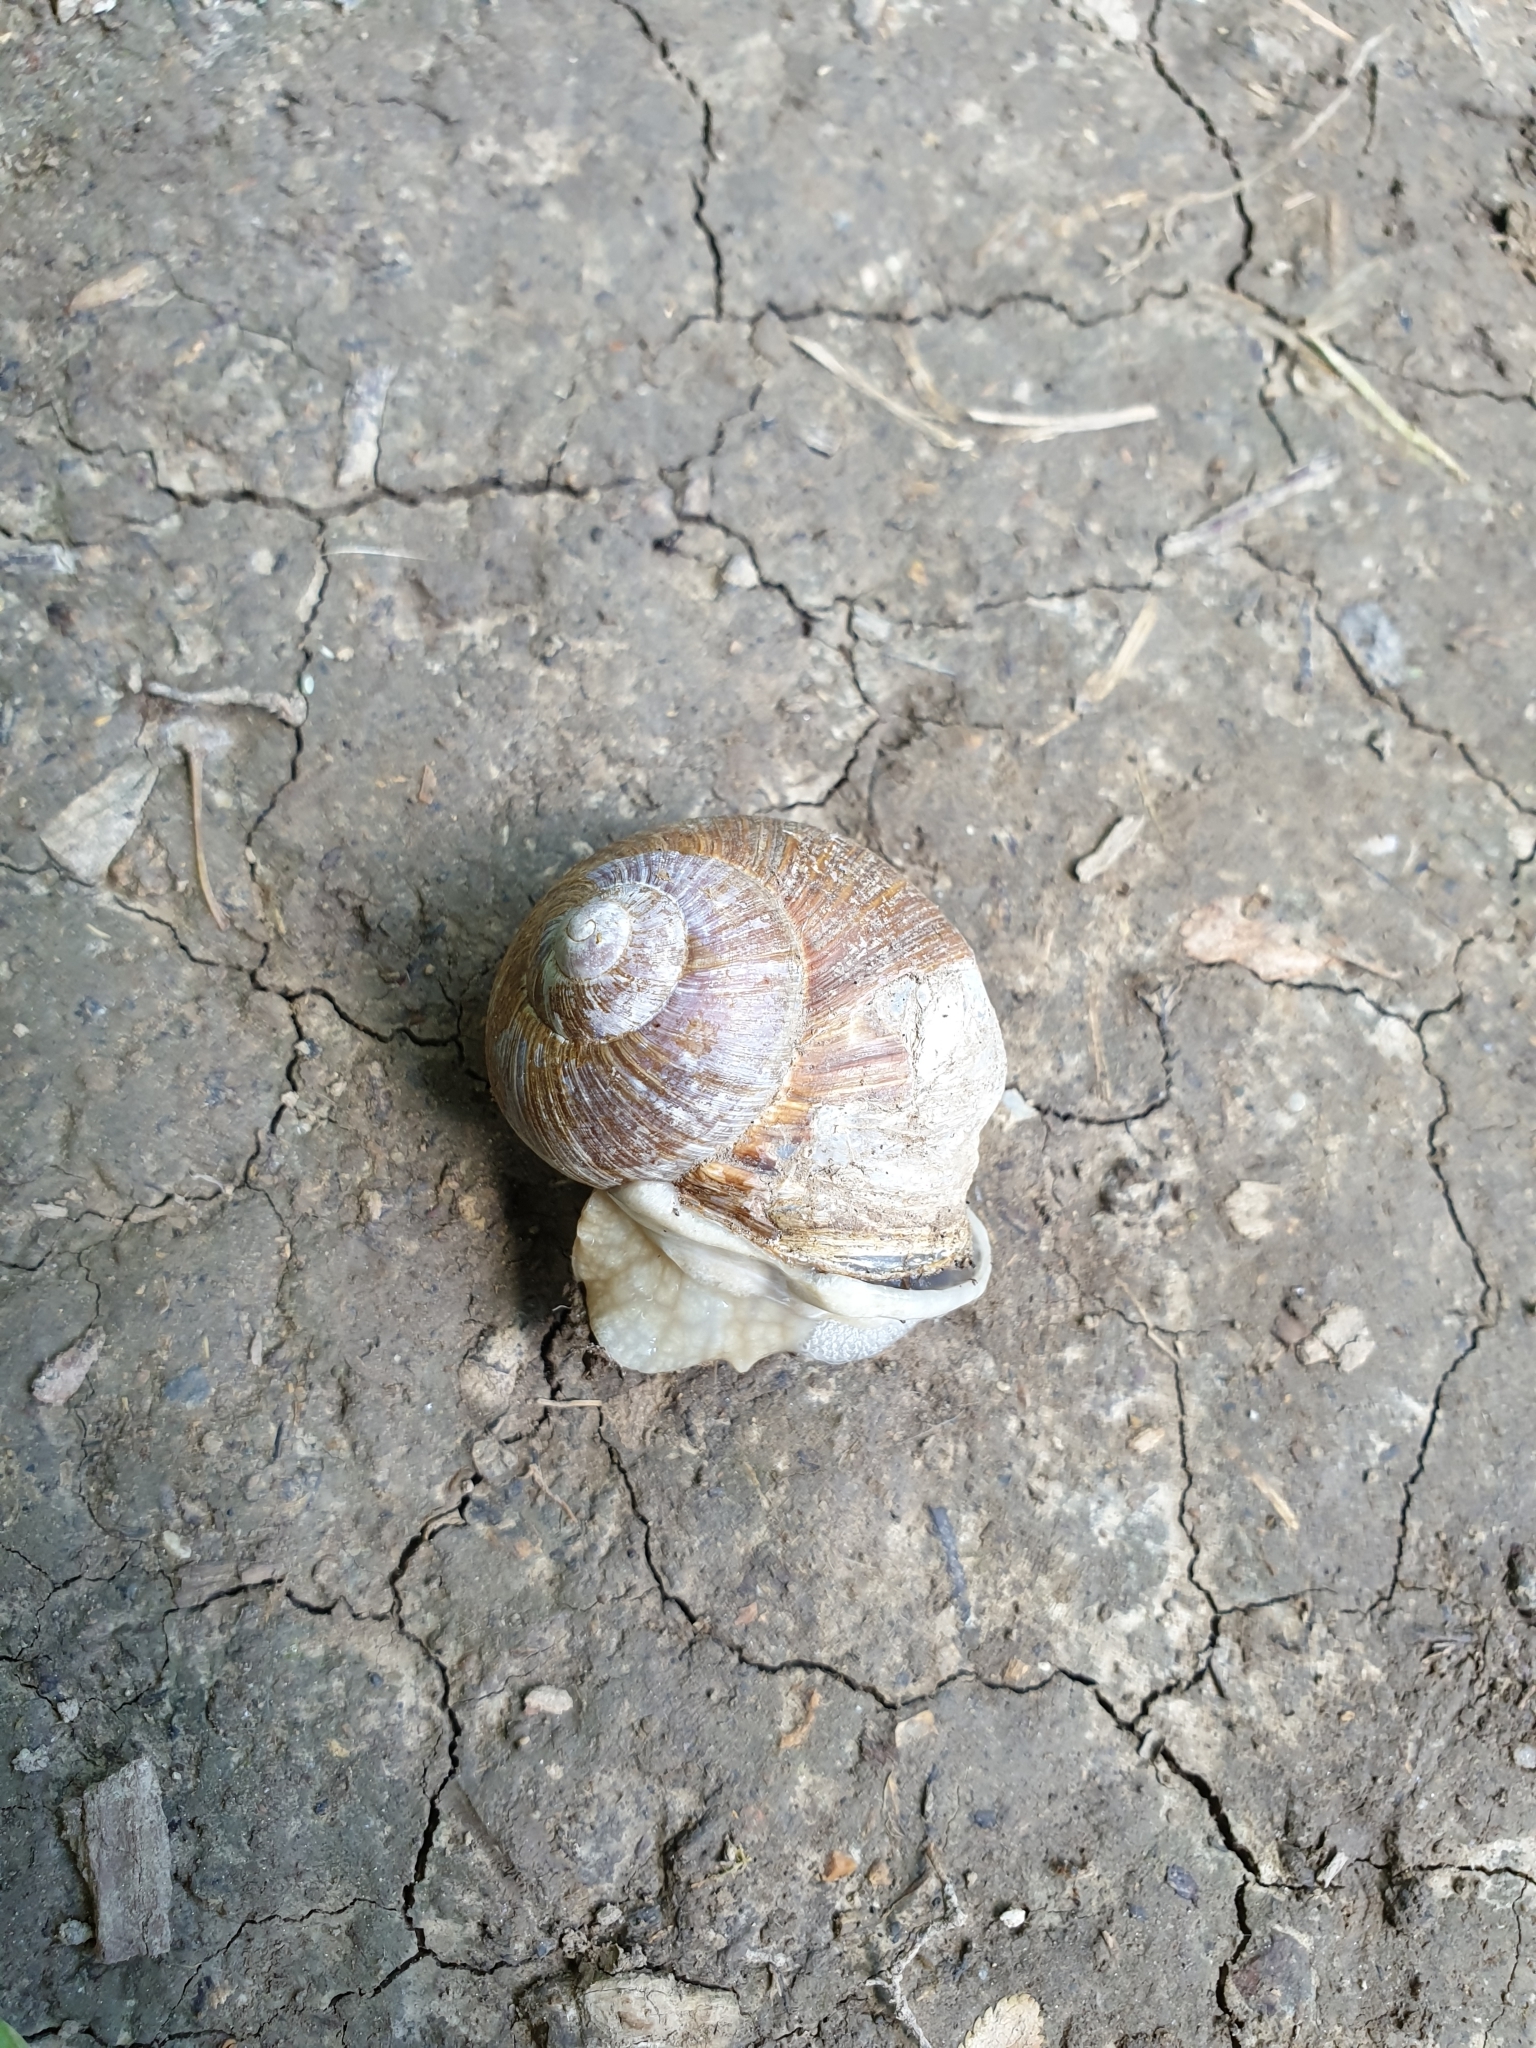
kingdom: Animalia
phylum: Mollusca
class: Gastropoda
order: Stylommatophora
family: Helicidae
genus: Helix
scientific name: Helix pomatia
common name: Roman snail
